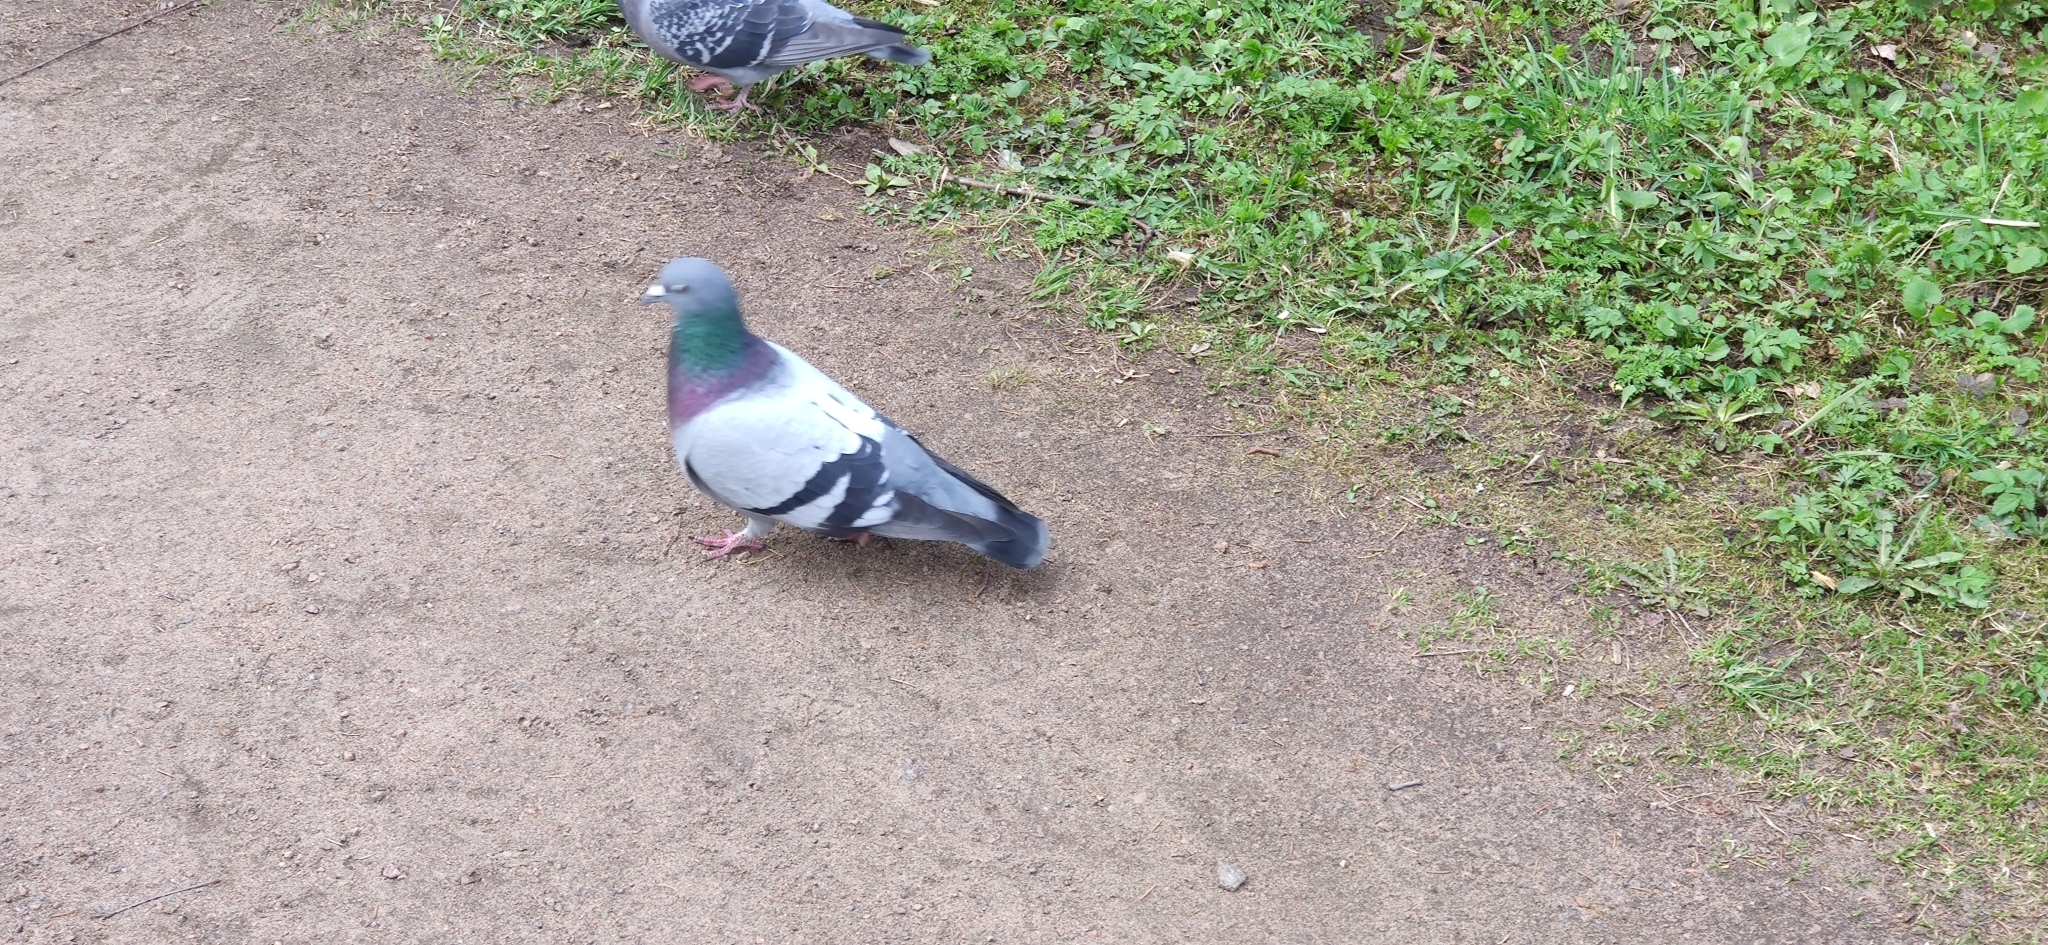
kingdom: Animalia
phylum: Chordata
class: Aves
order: Columbiformes
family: Columbidae
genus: Columba
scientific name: Columba livia
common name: Rock pigeon
